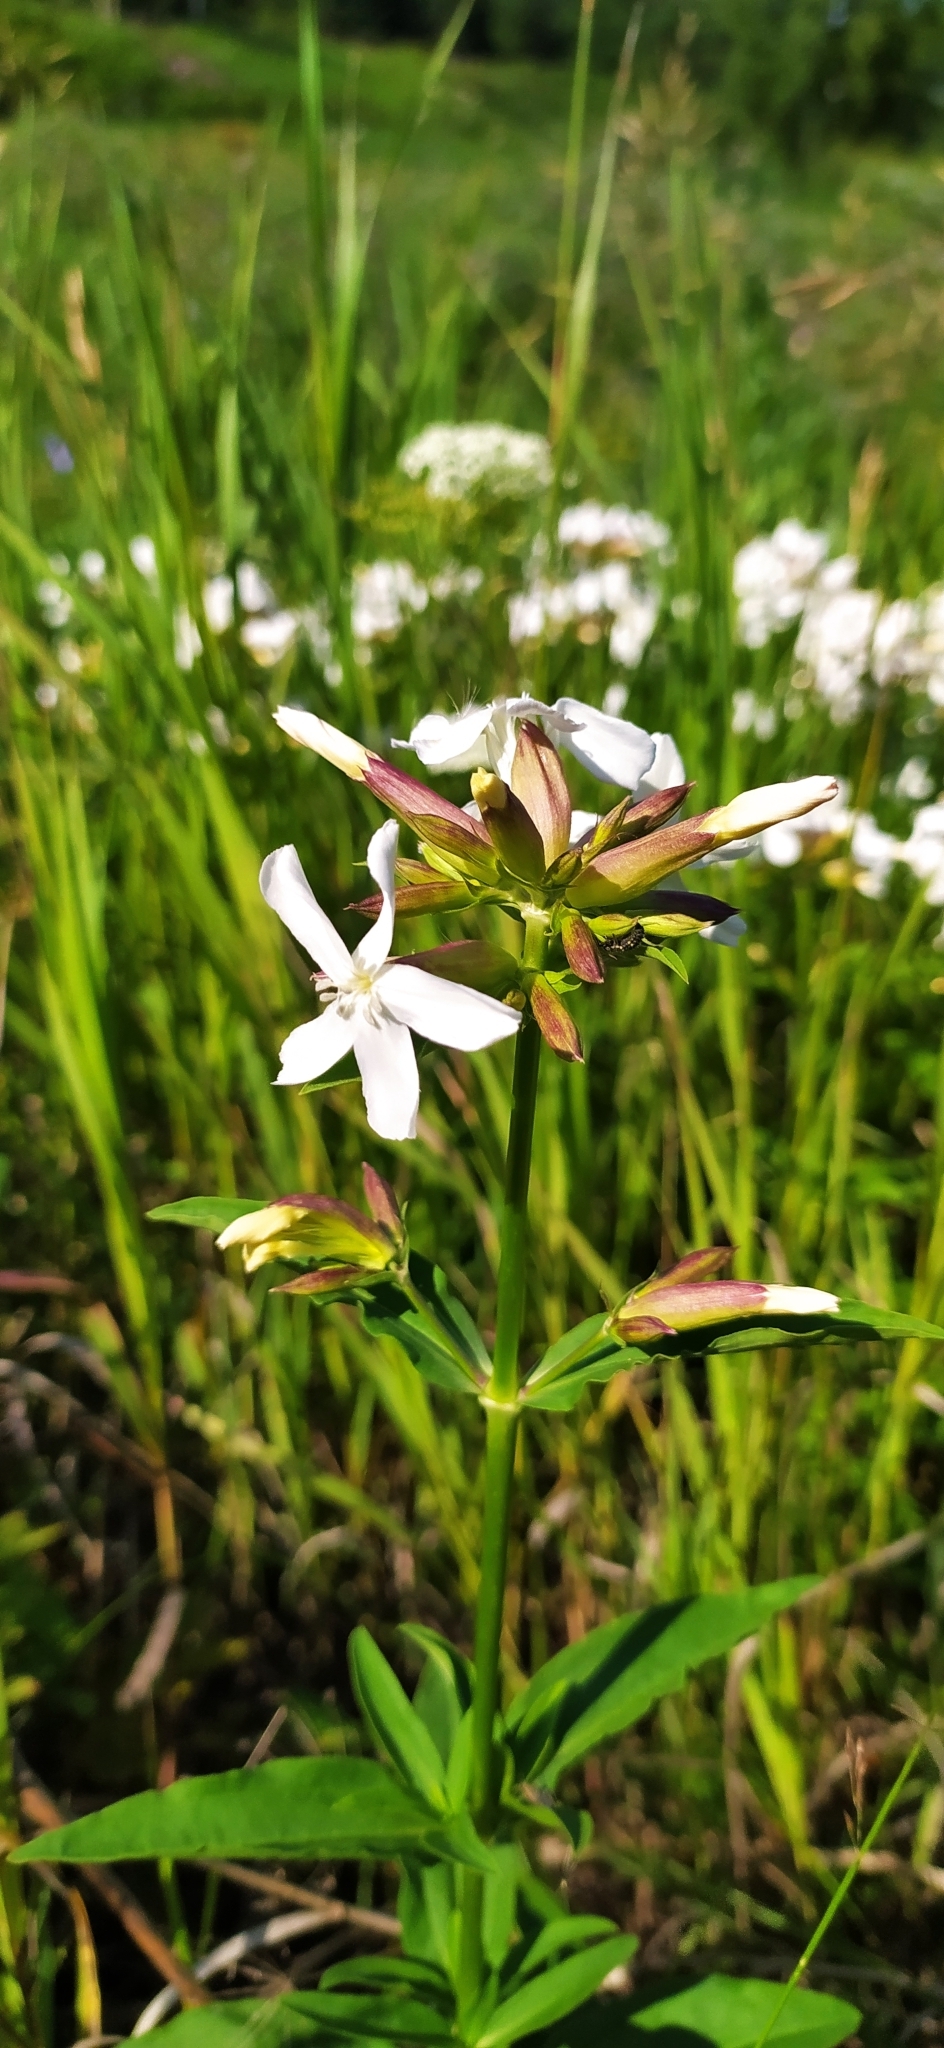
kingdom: Plantae
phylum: Tracheophyta
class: Magnoliopsida
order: Caryophyllales
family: Caryophyllaceae
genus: Saponaria
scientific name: Saponaria officinalis
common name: Soapwort
